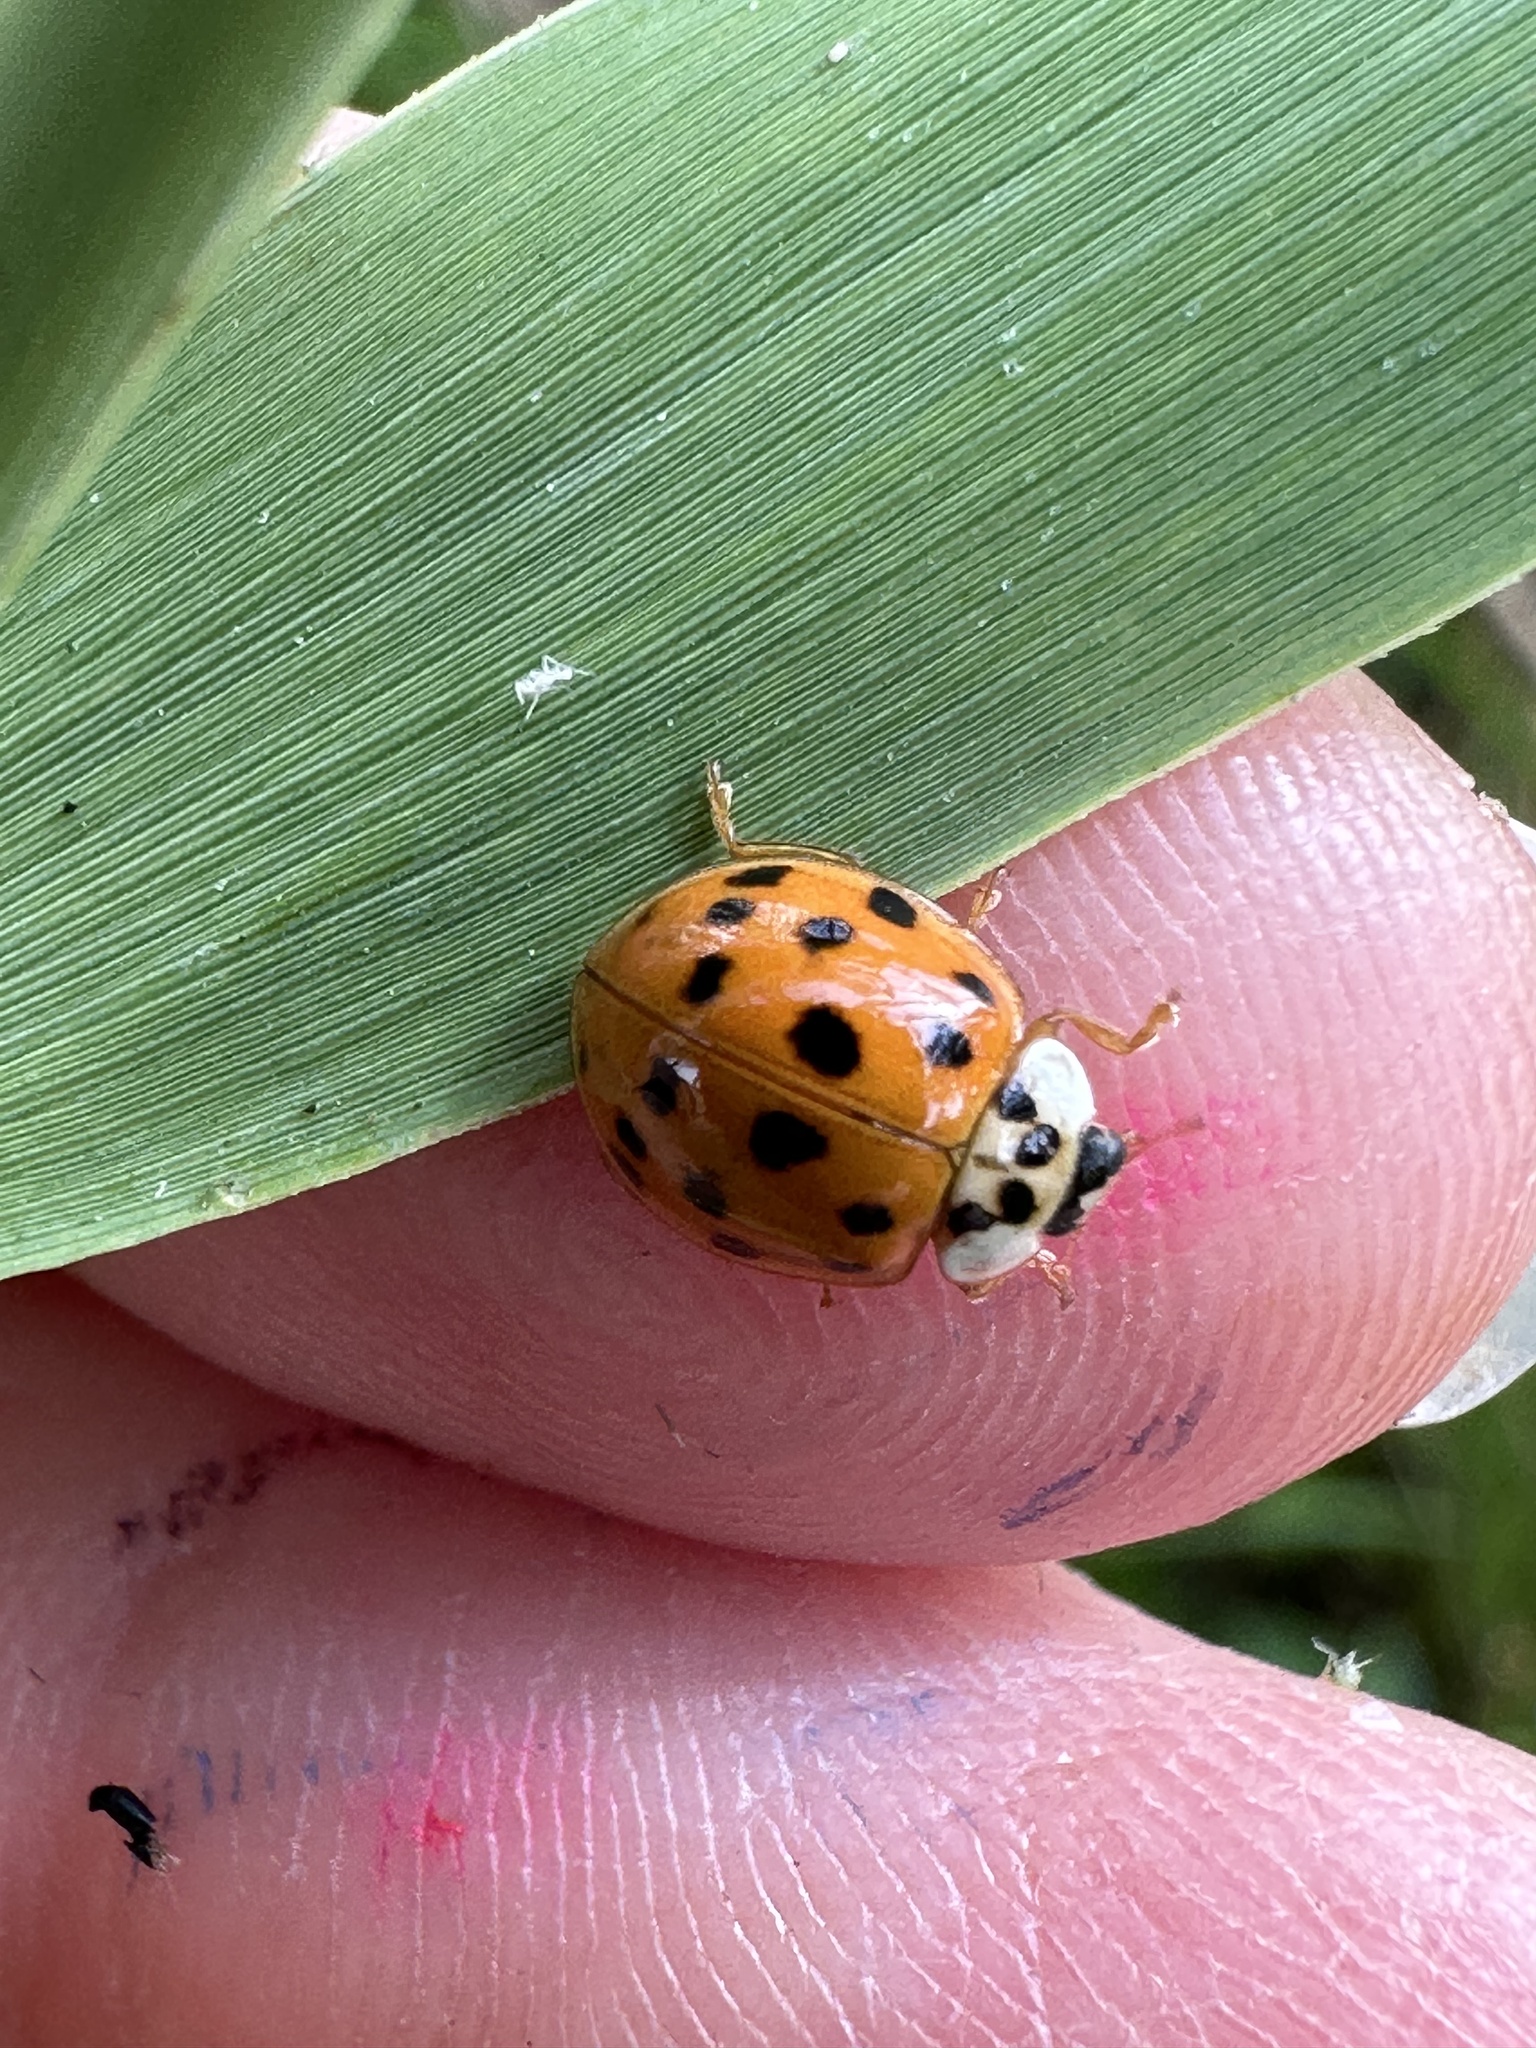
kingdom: Animalia
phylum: Arthropoda
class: Insecta
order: Coleoptera
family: Coccinellidae
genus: Harmonia
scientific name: Harmonia axyridis
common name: Harlequin ladybird
